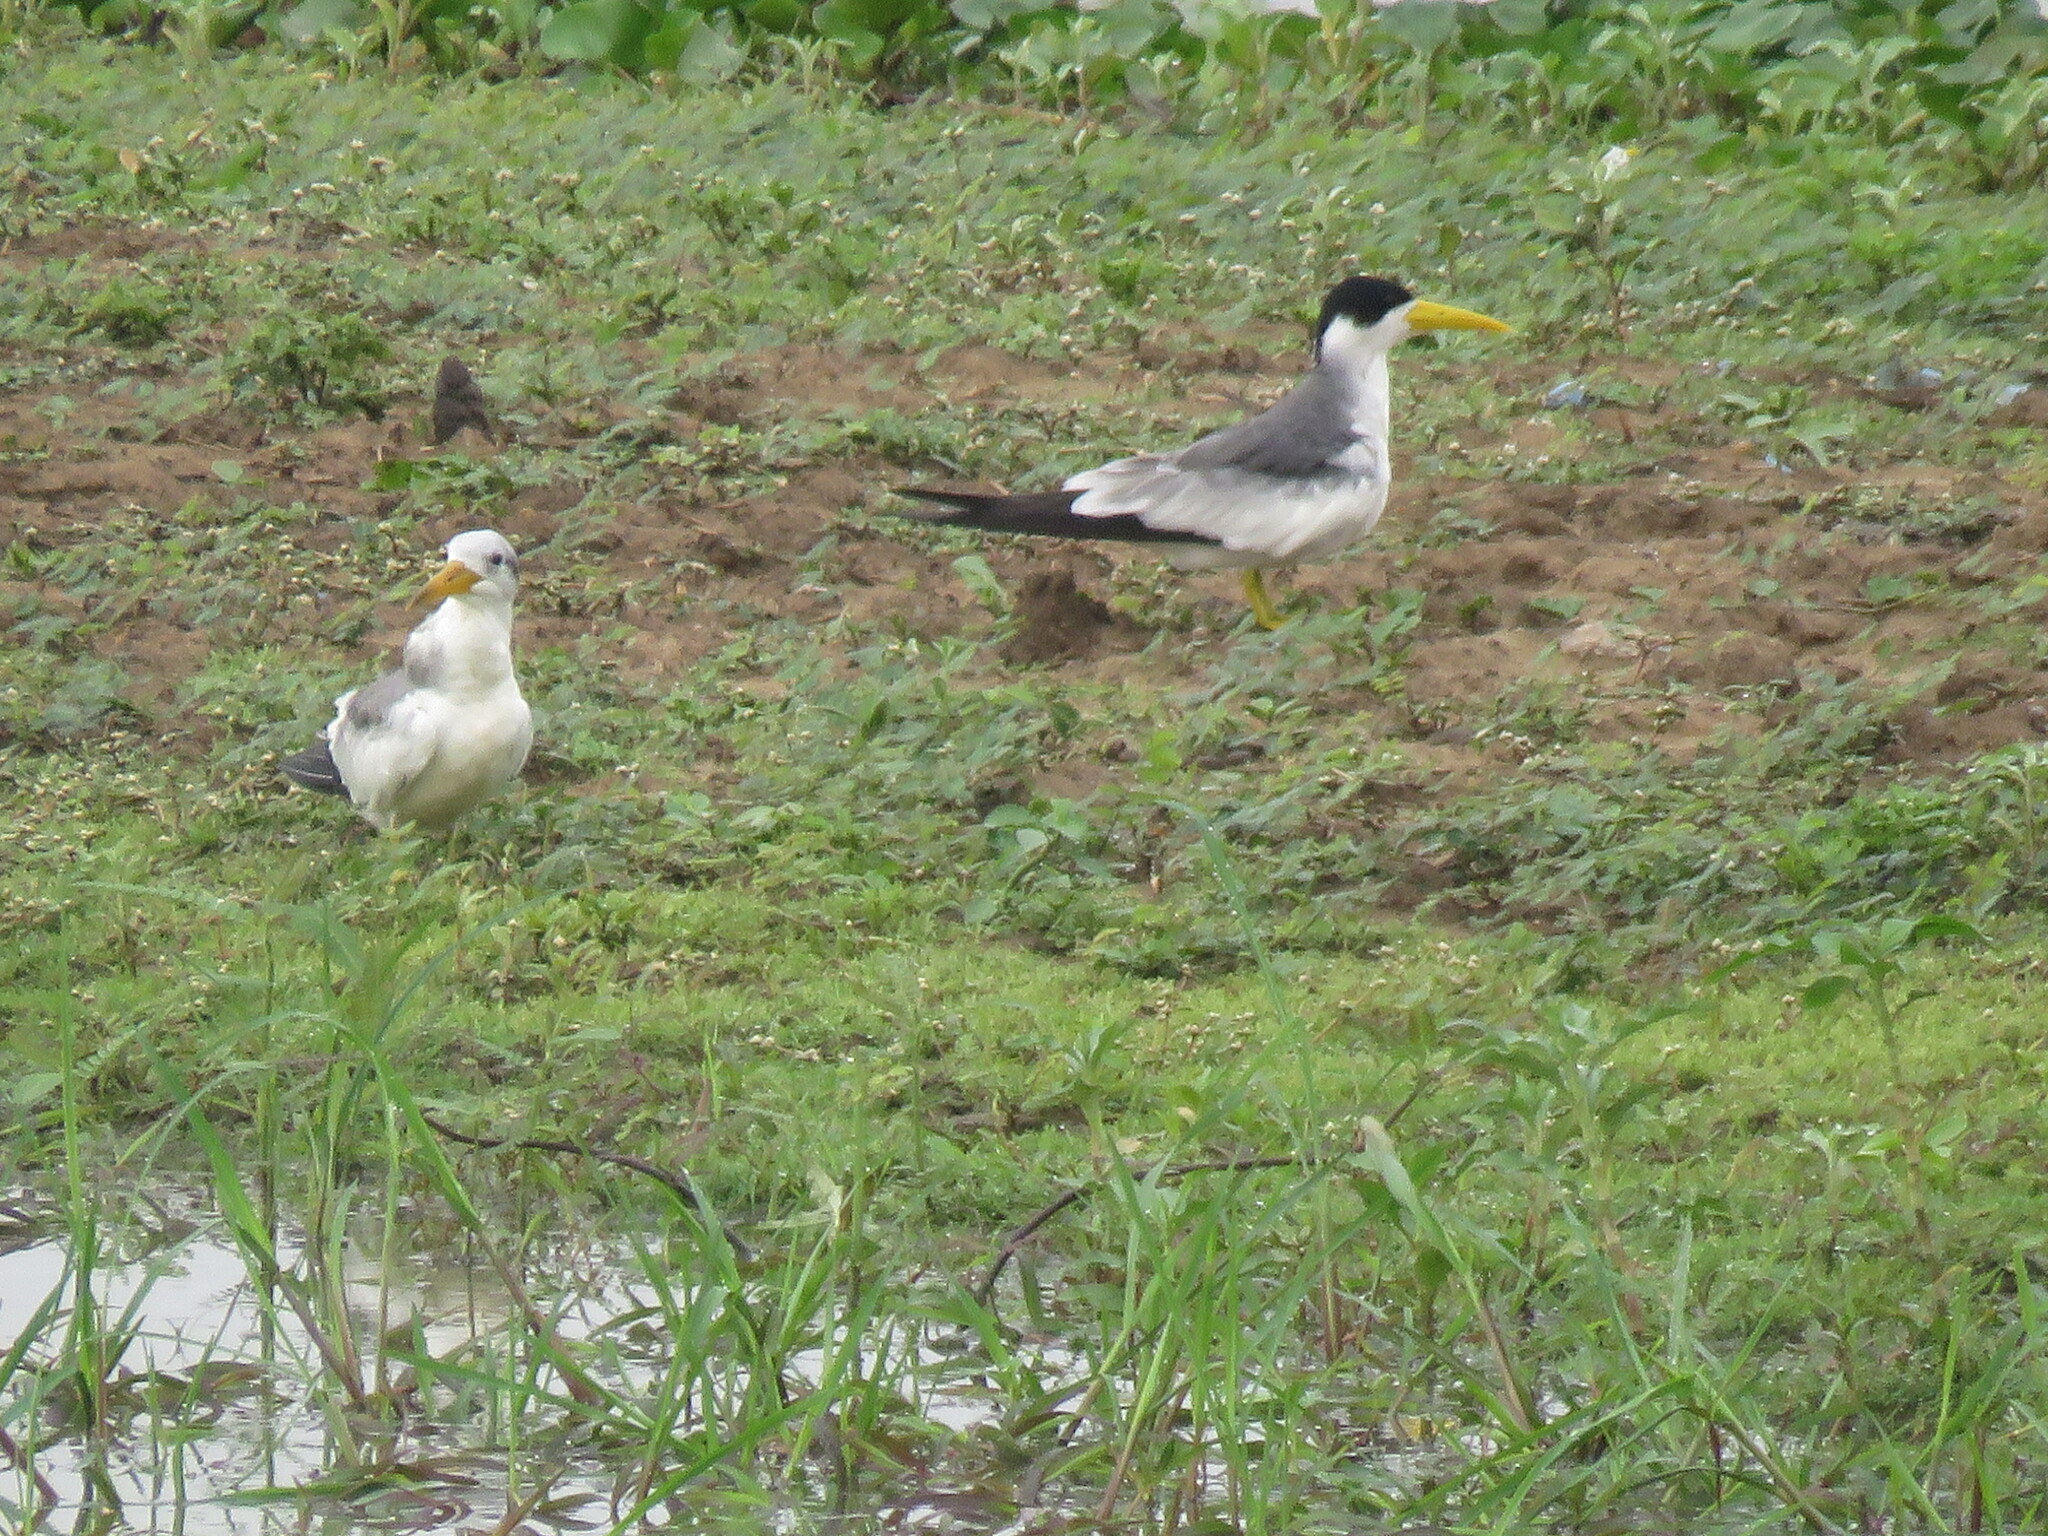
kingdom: Animalia
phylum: Chordata
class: Aves
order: Charadriiformes
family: Laridae
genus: Phaetusa
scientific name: Phaetusa simplex
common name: Large-billed tern
